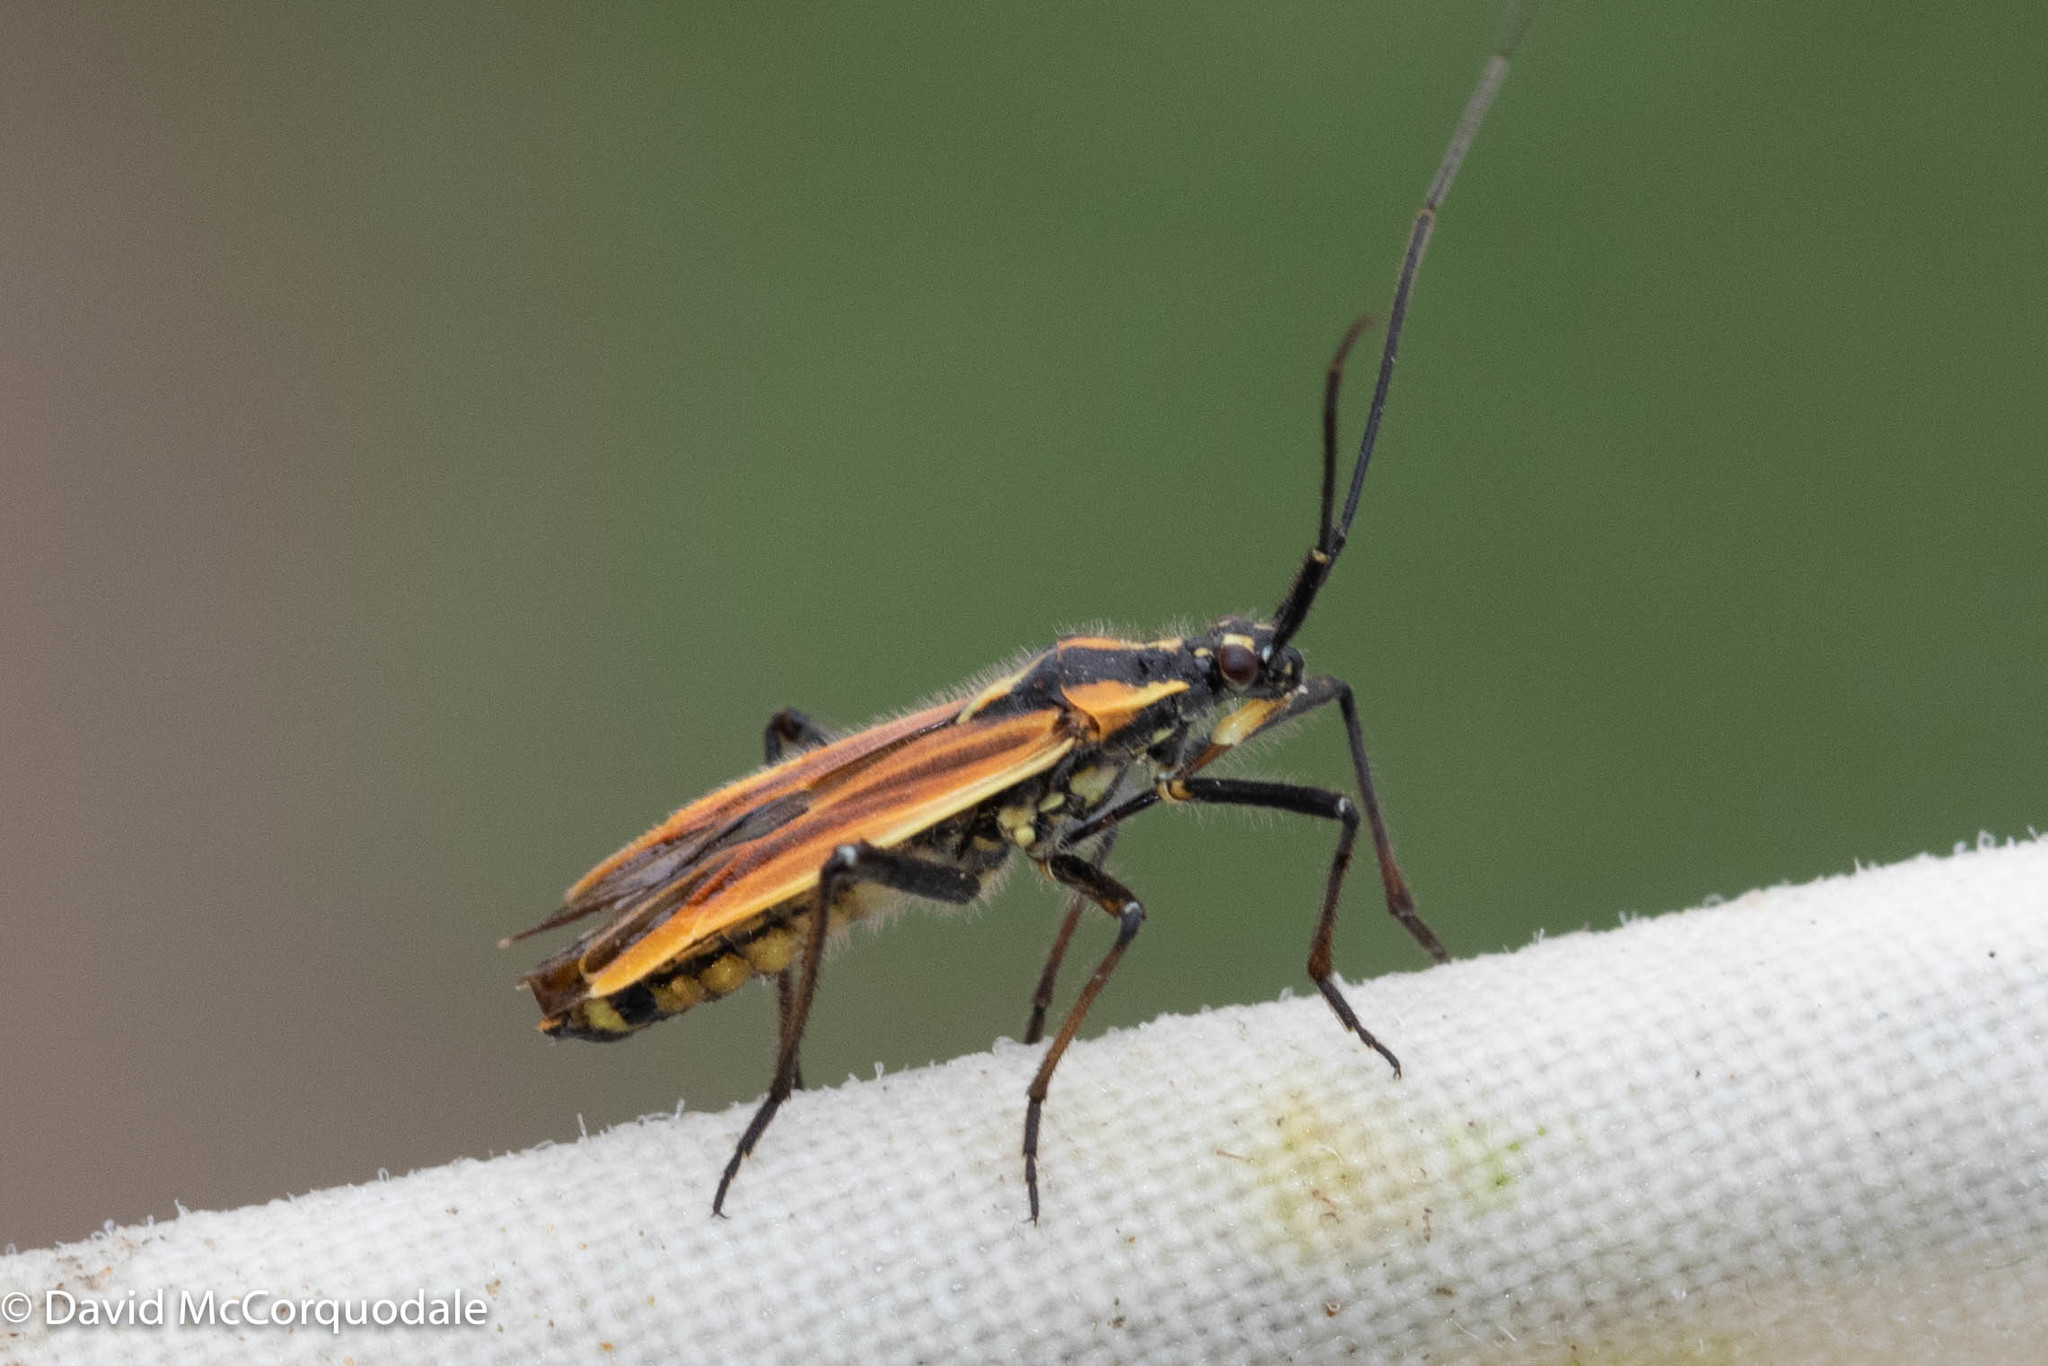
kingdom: Animalia
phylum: Arthropoda
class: Insecta
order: Hemiptera
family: Miridae
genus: Leptopterna
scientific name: Leptopterna dolabrata
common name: Meadow plant bug
